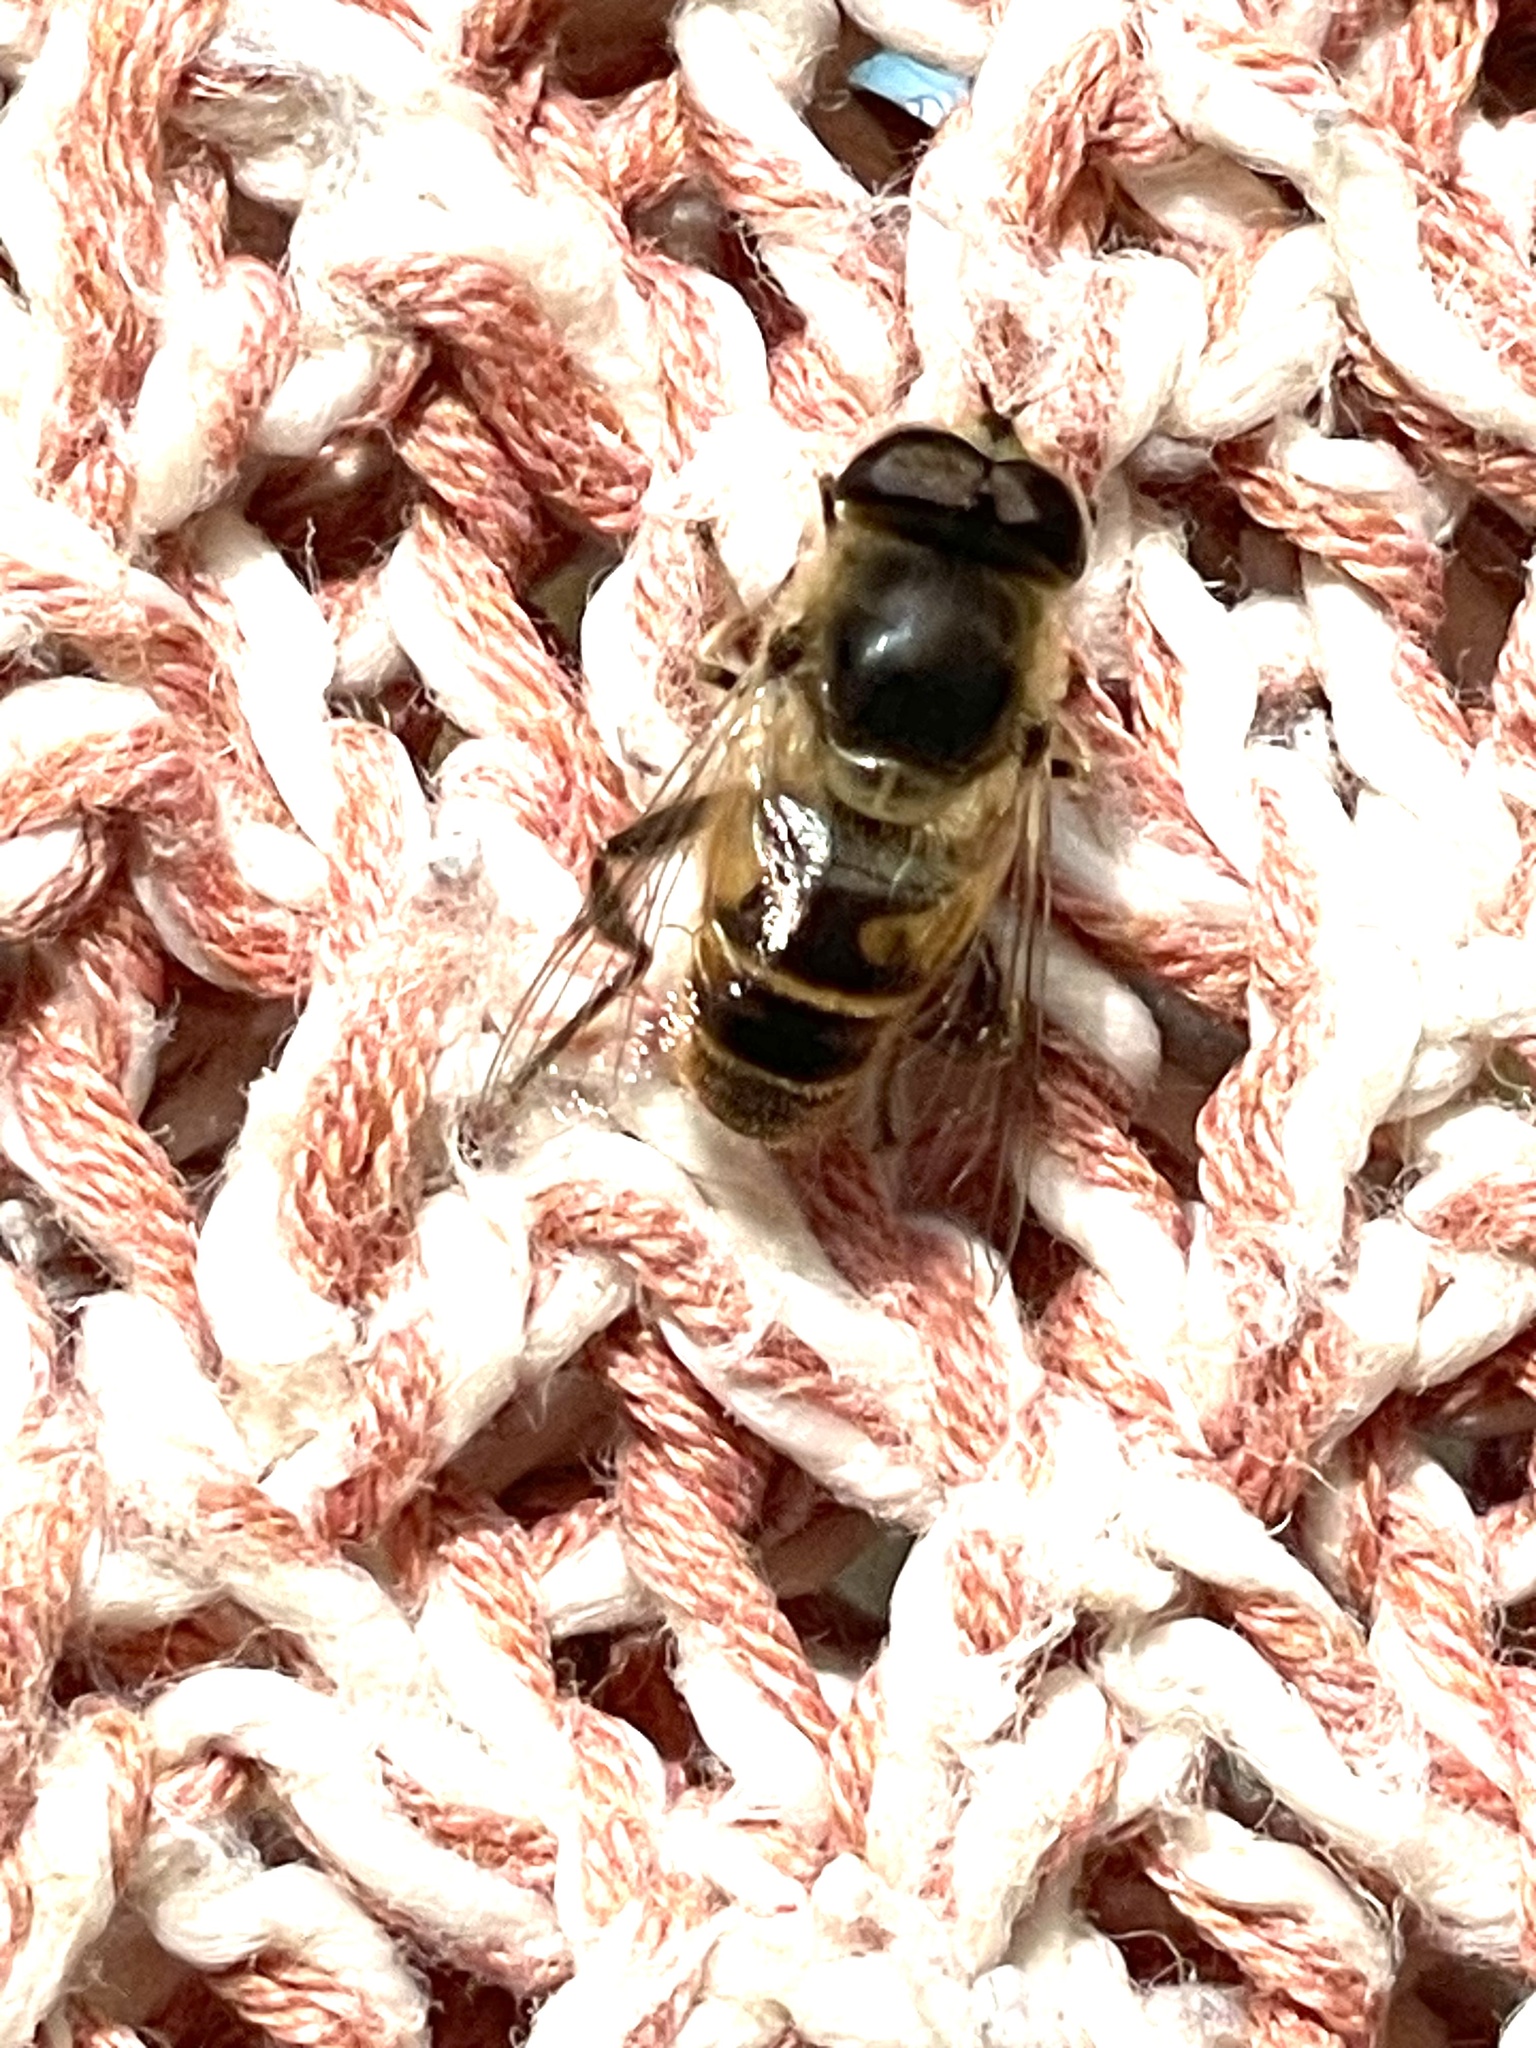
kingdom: Animalia
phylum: Arthropoda
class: Insecta
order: Diptera
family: Syrphidae
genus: Eristalis
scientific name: Eristalis tenax
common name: Drone fly
